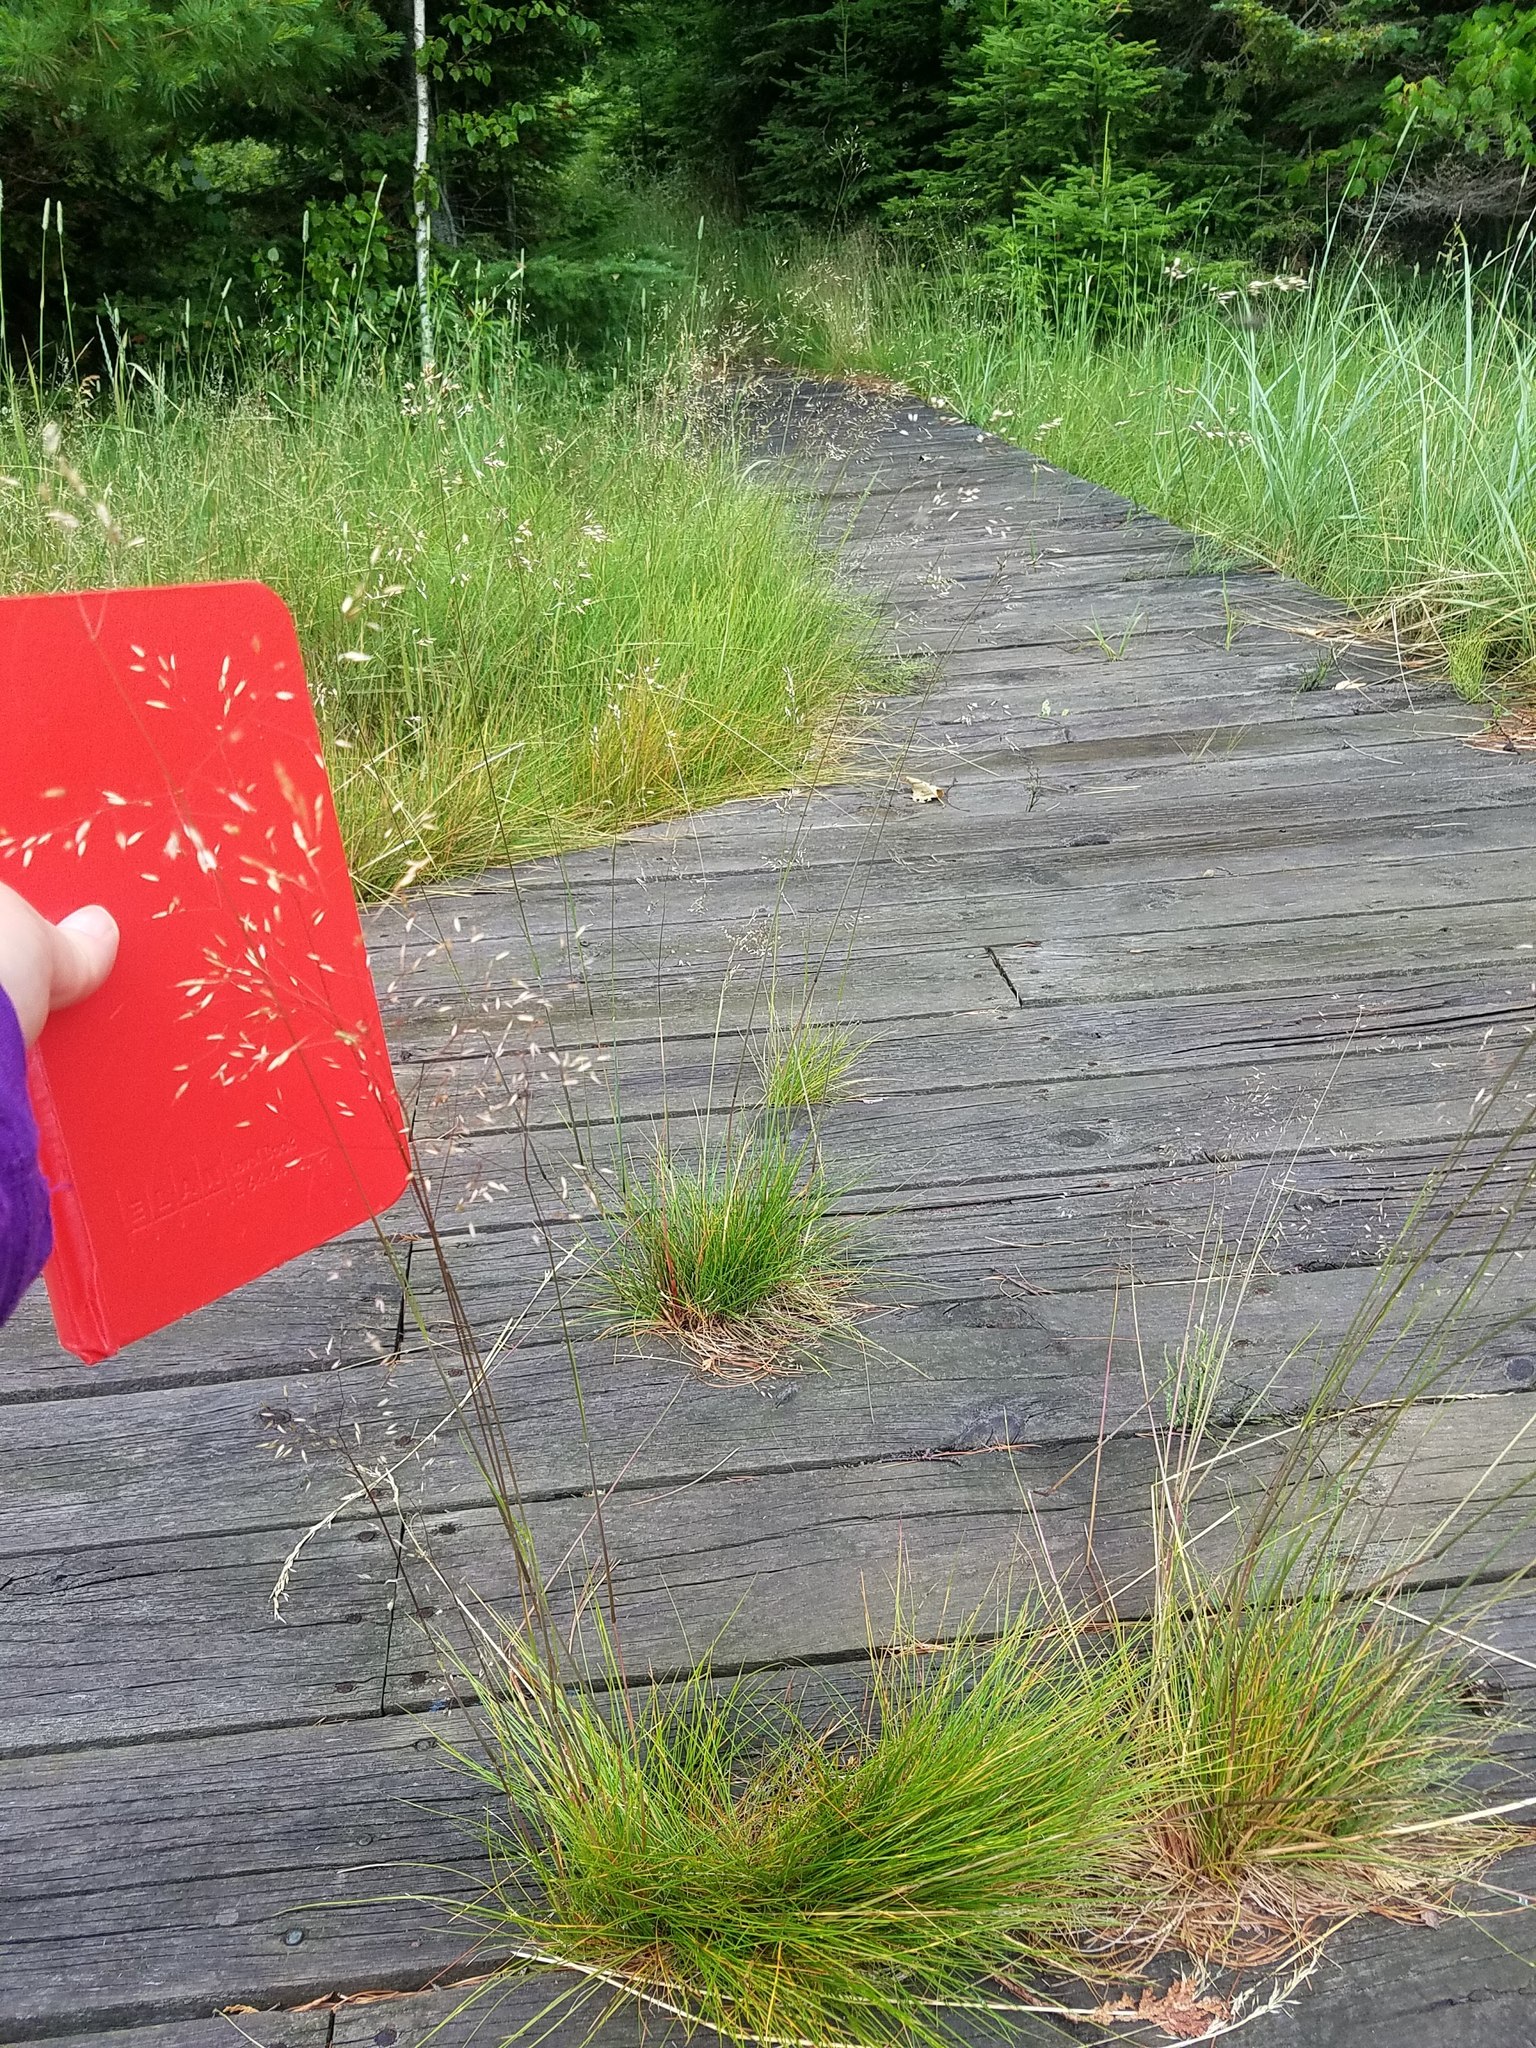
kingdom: Plantae
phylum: Tracheophyta
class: Liliopsida
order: Poales
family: Poaceae
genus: Avenella
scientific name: Avenella flexuosa
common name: Wavy hairgrass
